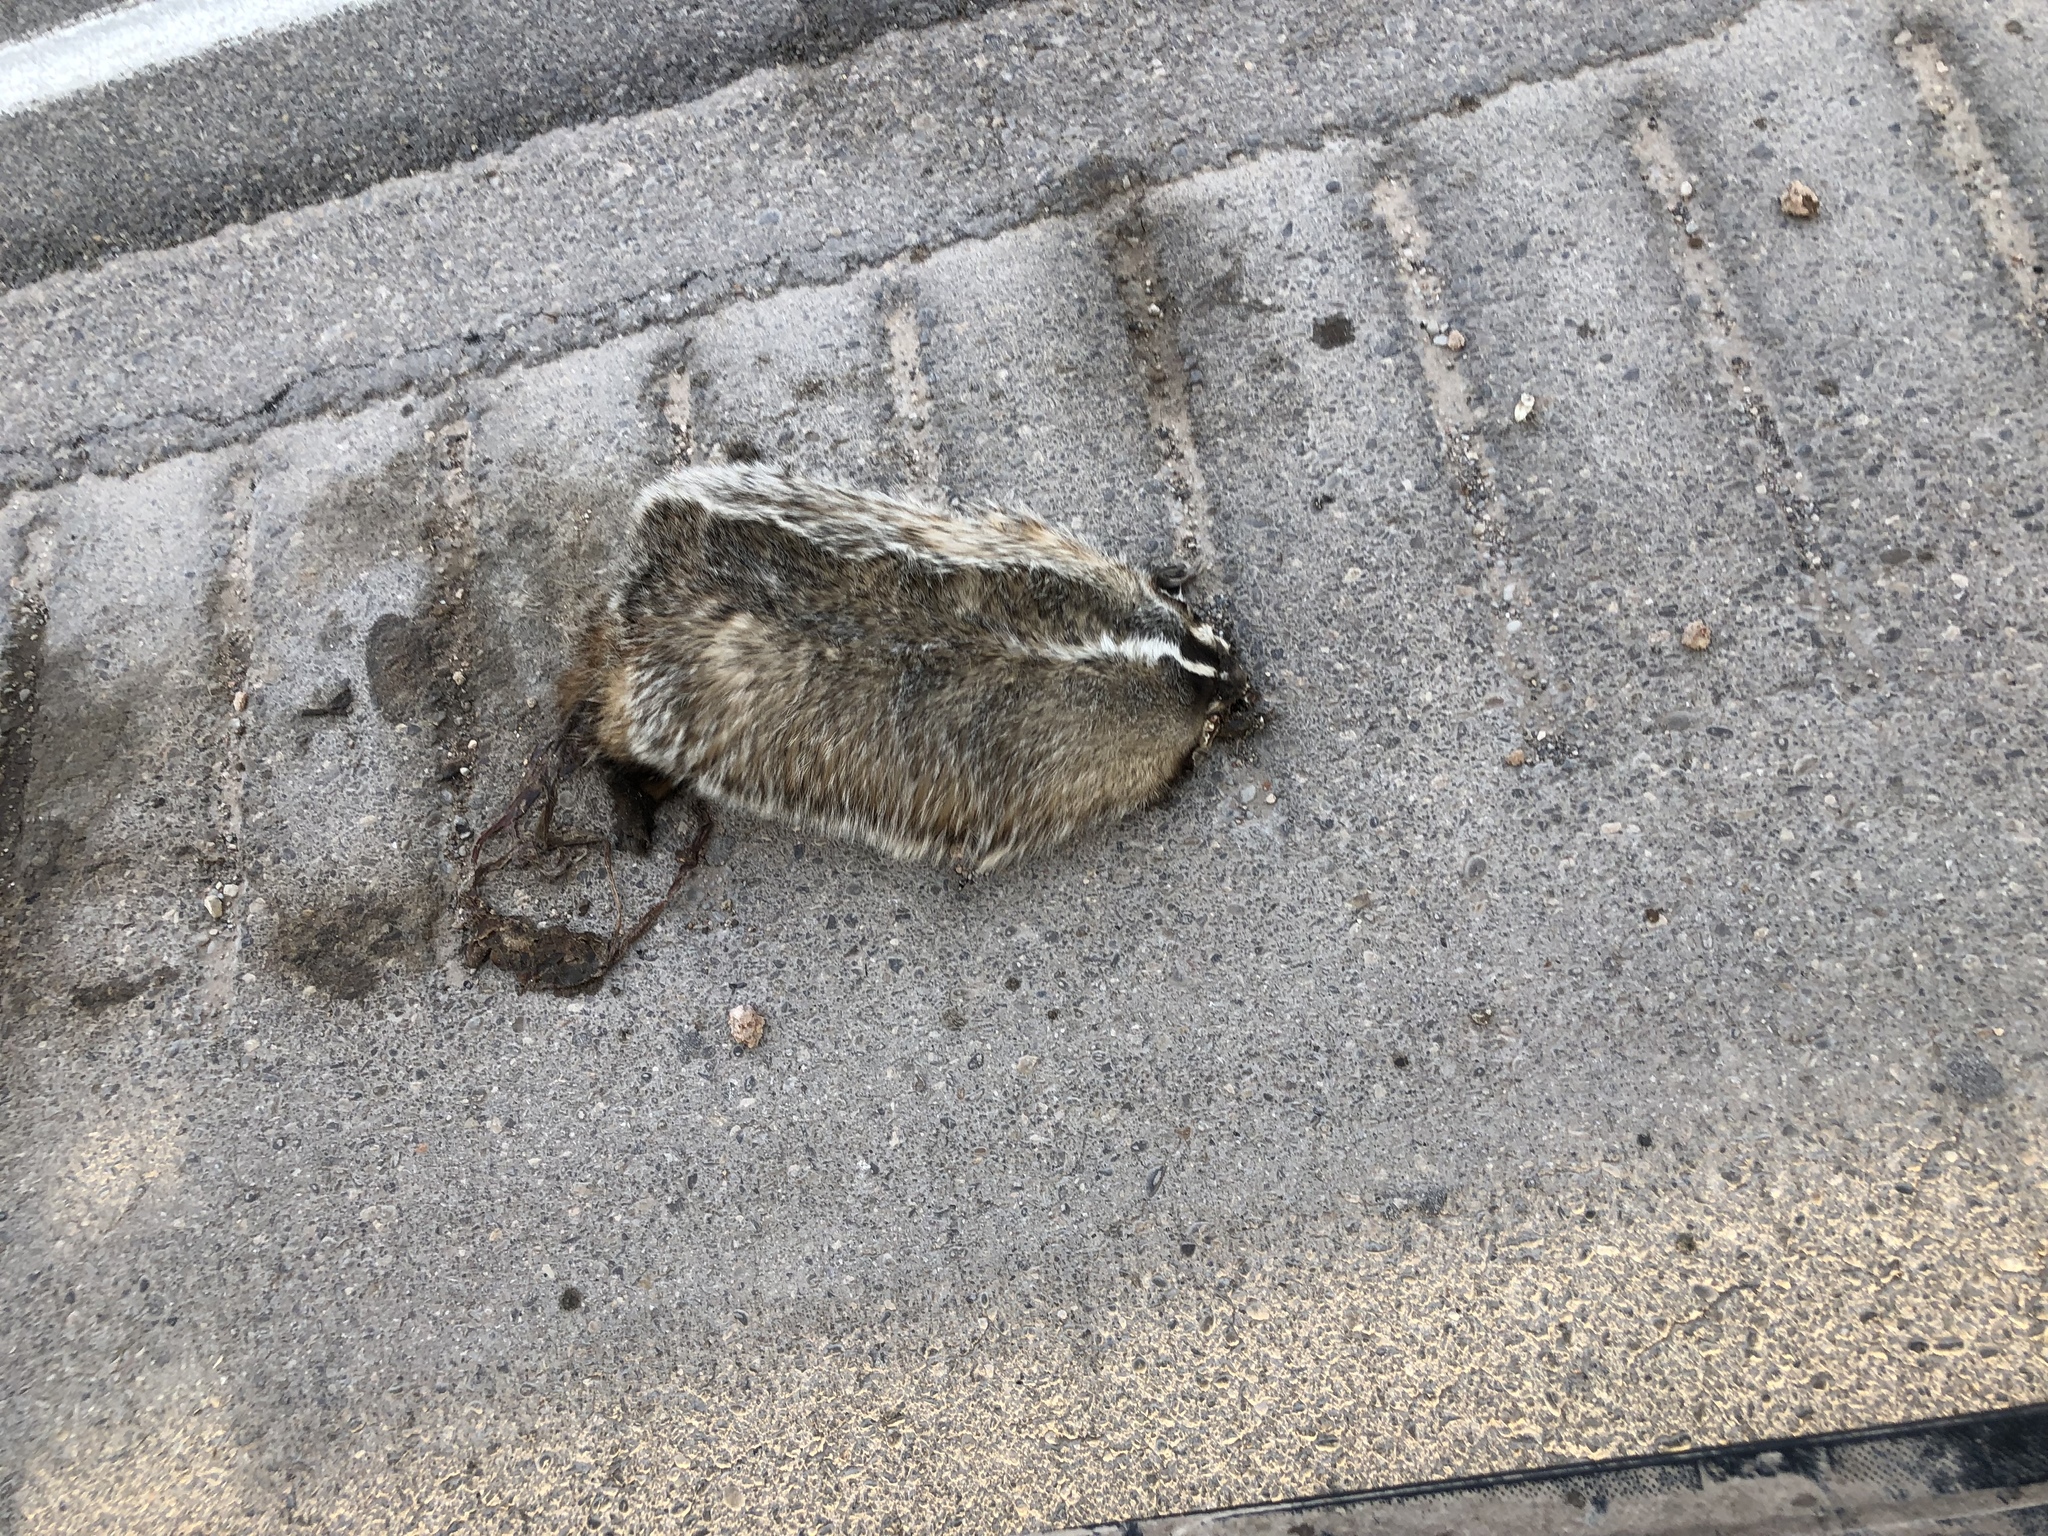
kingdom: Animalia
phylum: Chordata
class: Mammalia
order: Carnivora
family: Mustelidae
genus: Taxidea
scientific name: Taxidea taxus
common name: American badger
